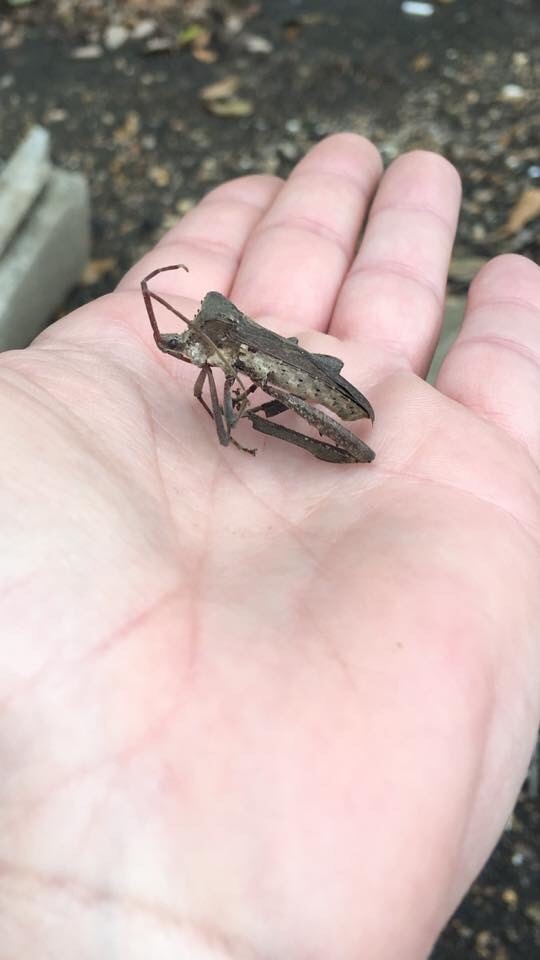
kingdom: Animalia
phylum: Arthropoda
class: Insecta
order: Hemiptera
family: Coreidae
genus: Acanthocephala
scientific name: Acanthocephala declivis
